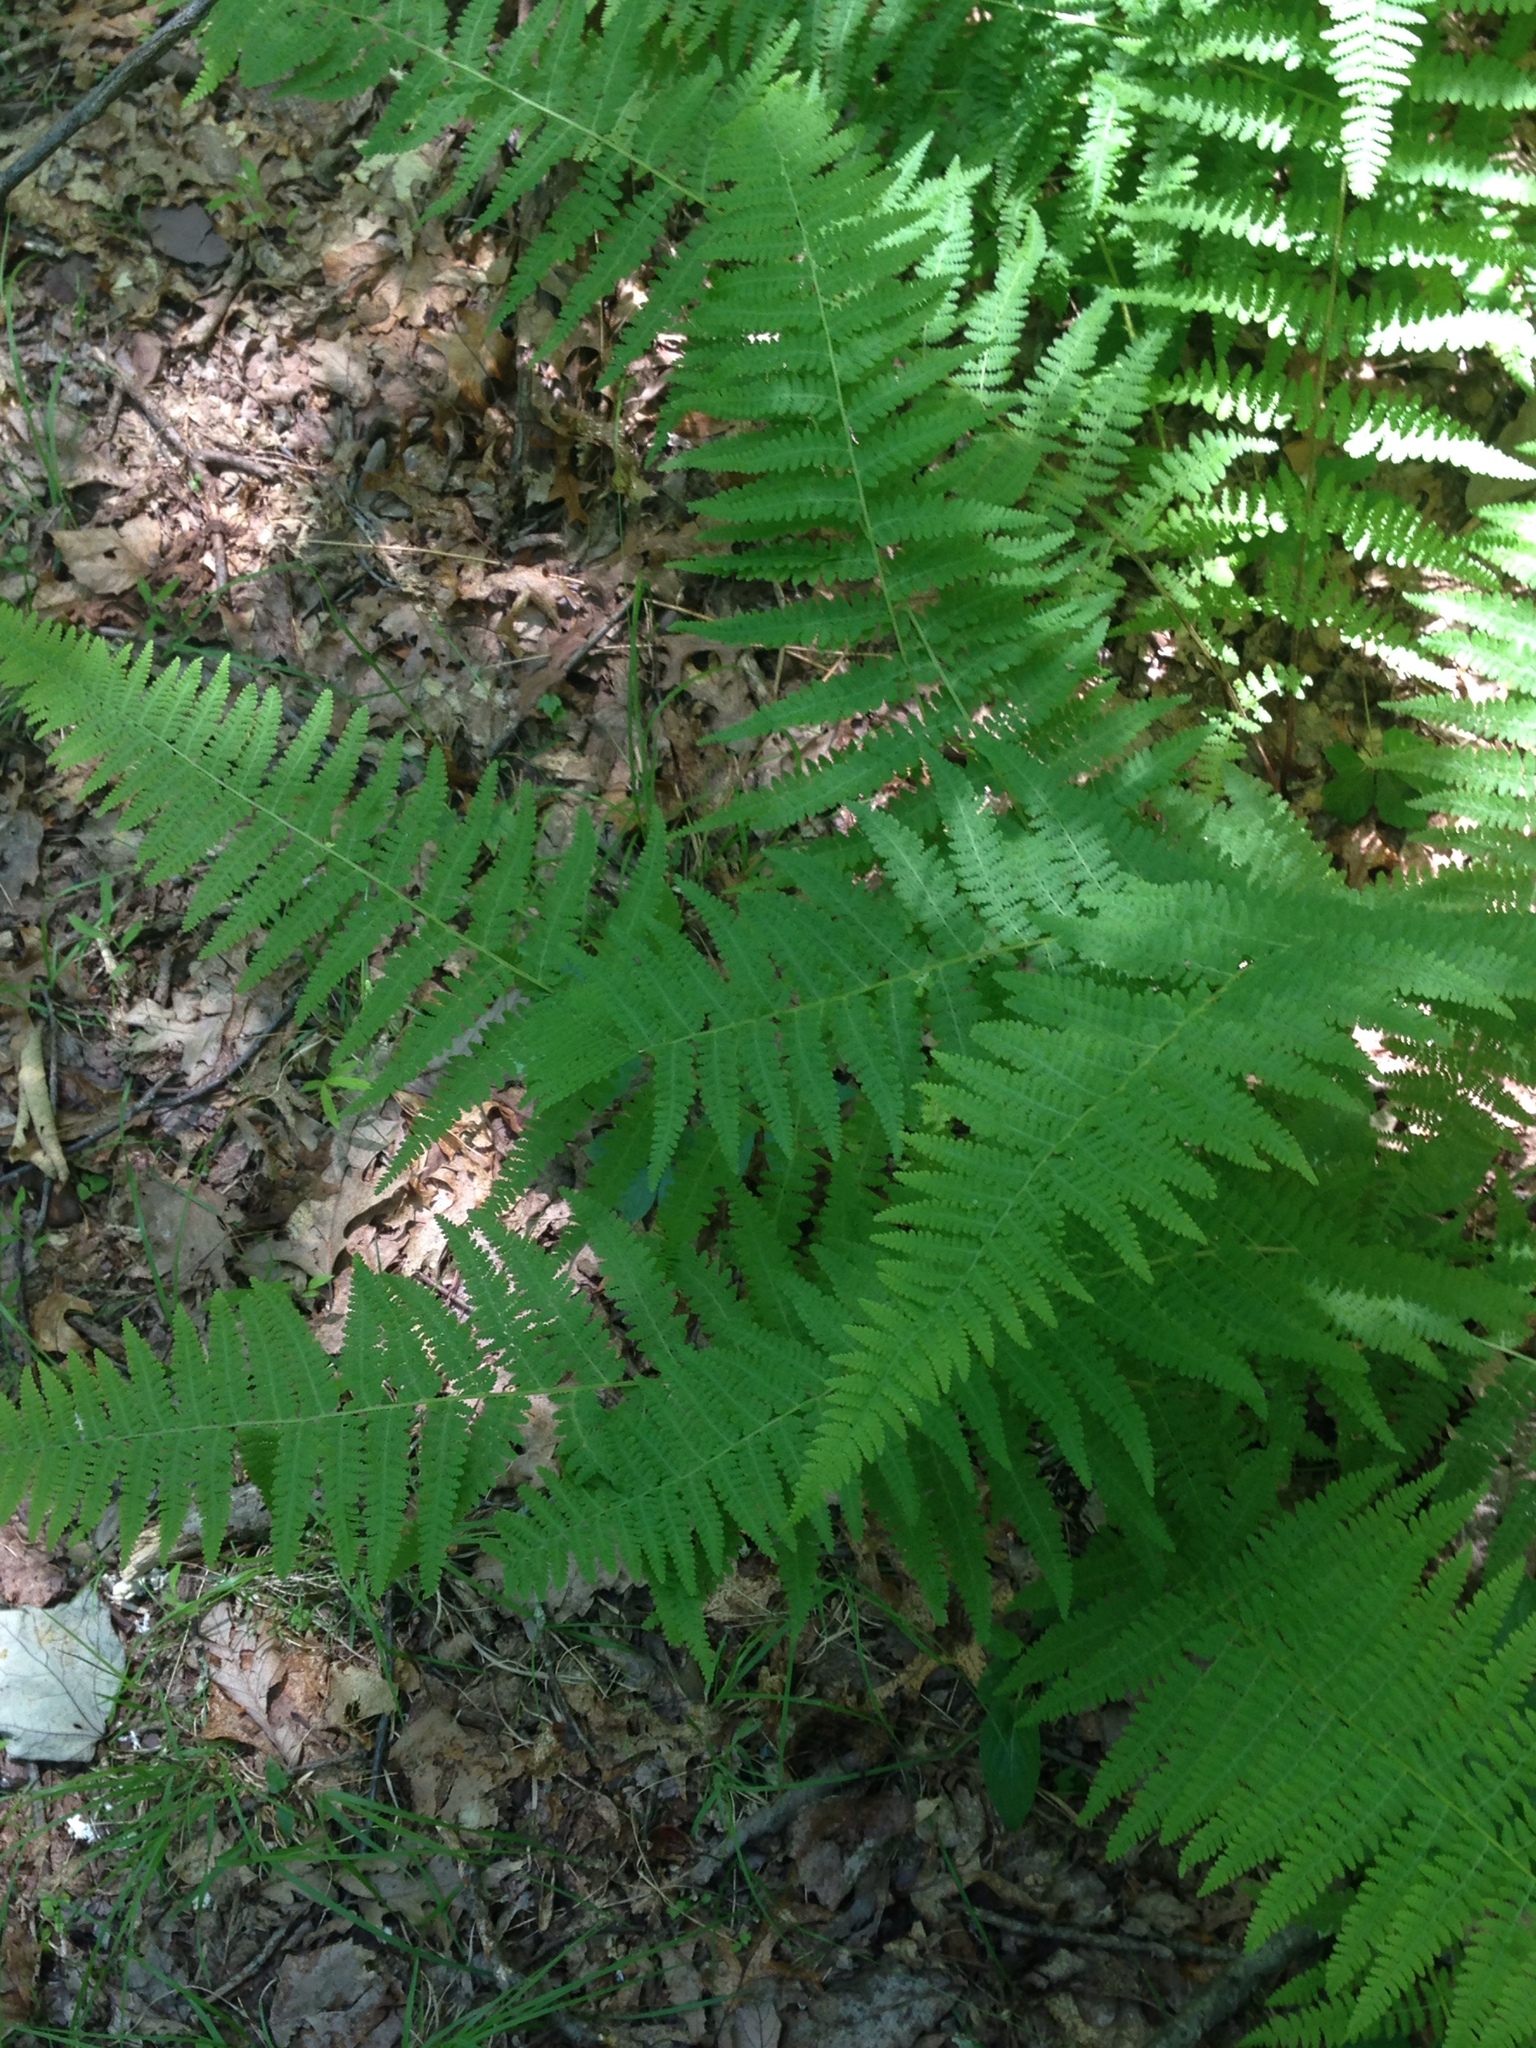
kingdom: Plantae
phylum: Tracheophyta
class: Polypodiopsida
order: Polypodiales
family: Dennstaedtiaceae
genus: Sitobolium
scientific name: Sitobolium punctilobum
